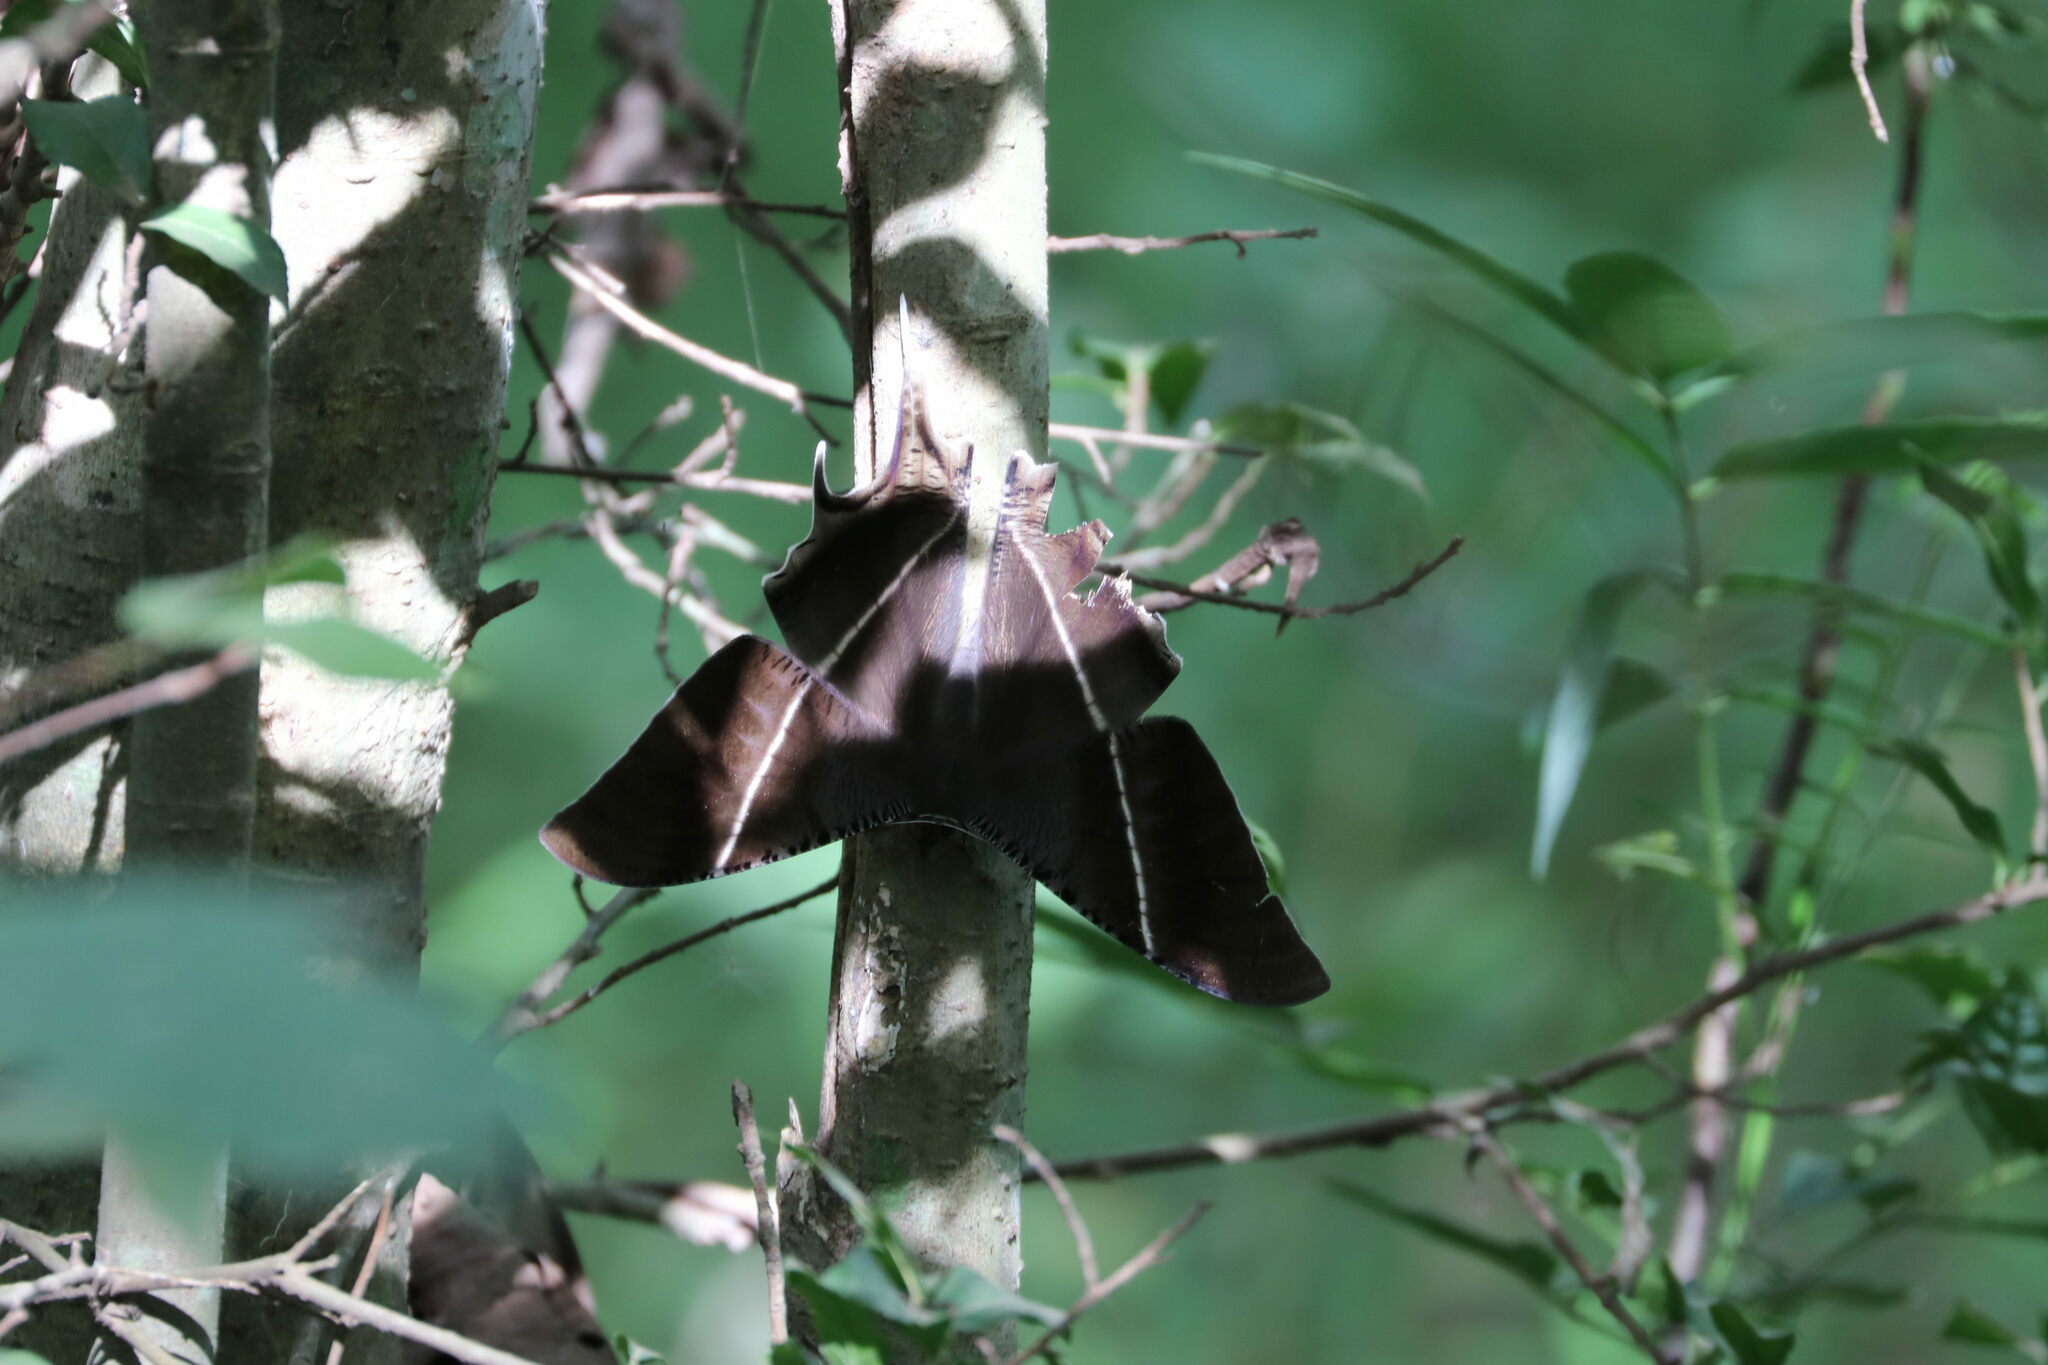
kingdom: Animalia
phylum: Arthropoda
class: Insecta
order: Lepidoptera
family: Uraniidae
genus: Lyssa
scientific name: Lyssa zampa
